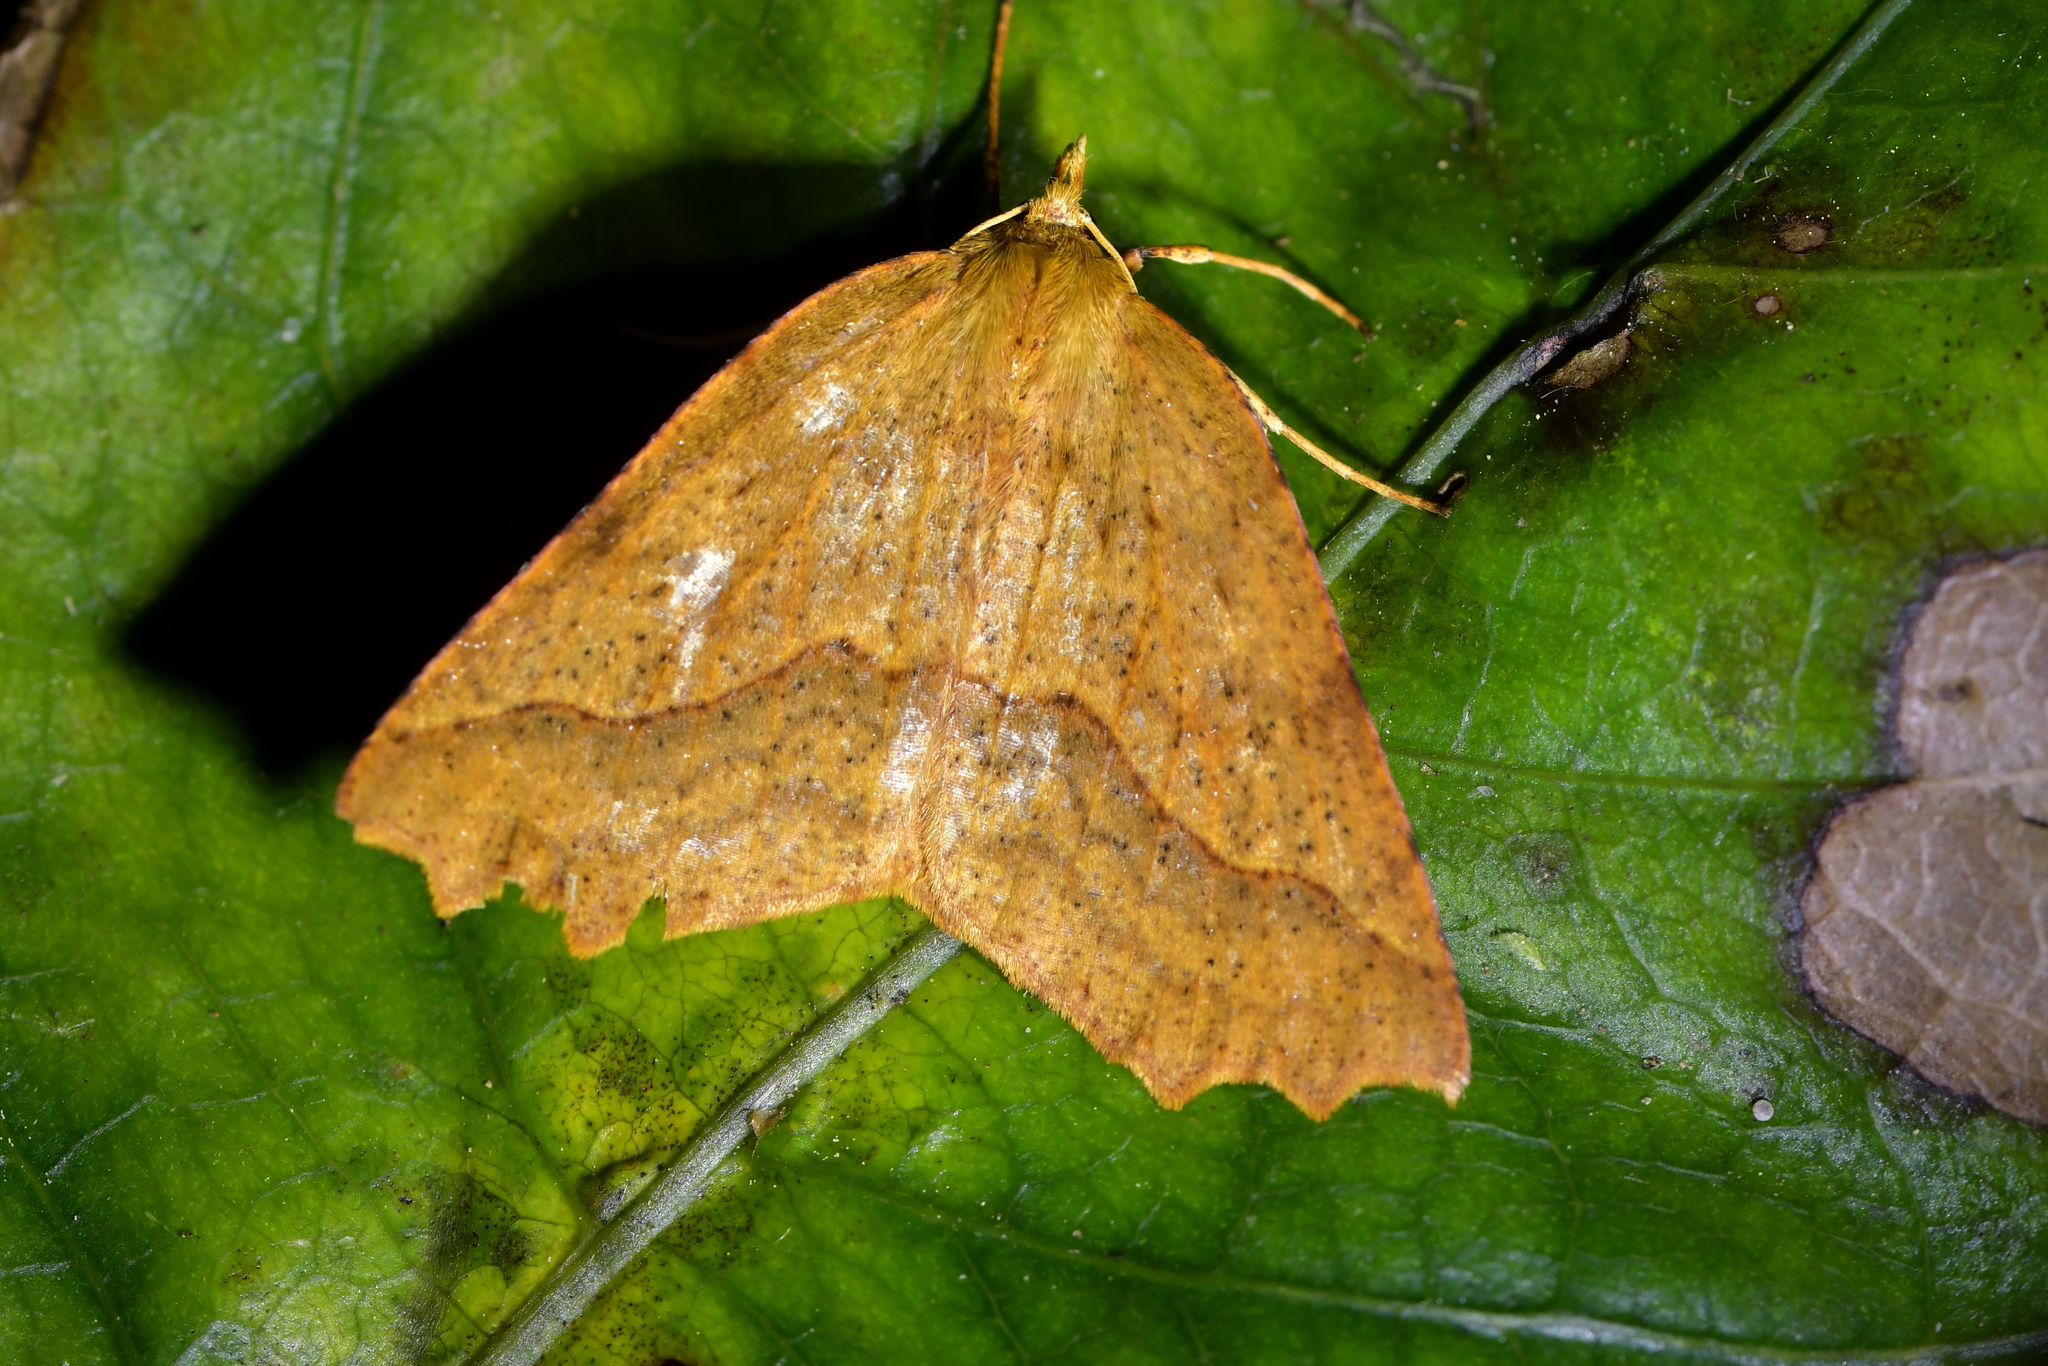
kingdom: Animalia
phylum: Arthropoda
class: Insecta
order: Lepidoptera
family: Geometridae
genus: Ischalis
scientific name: Ischalis variabilis
